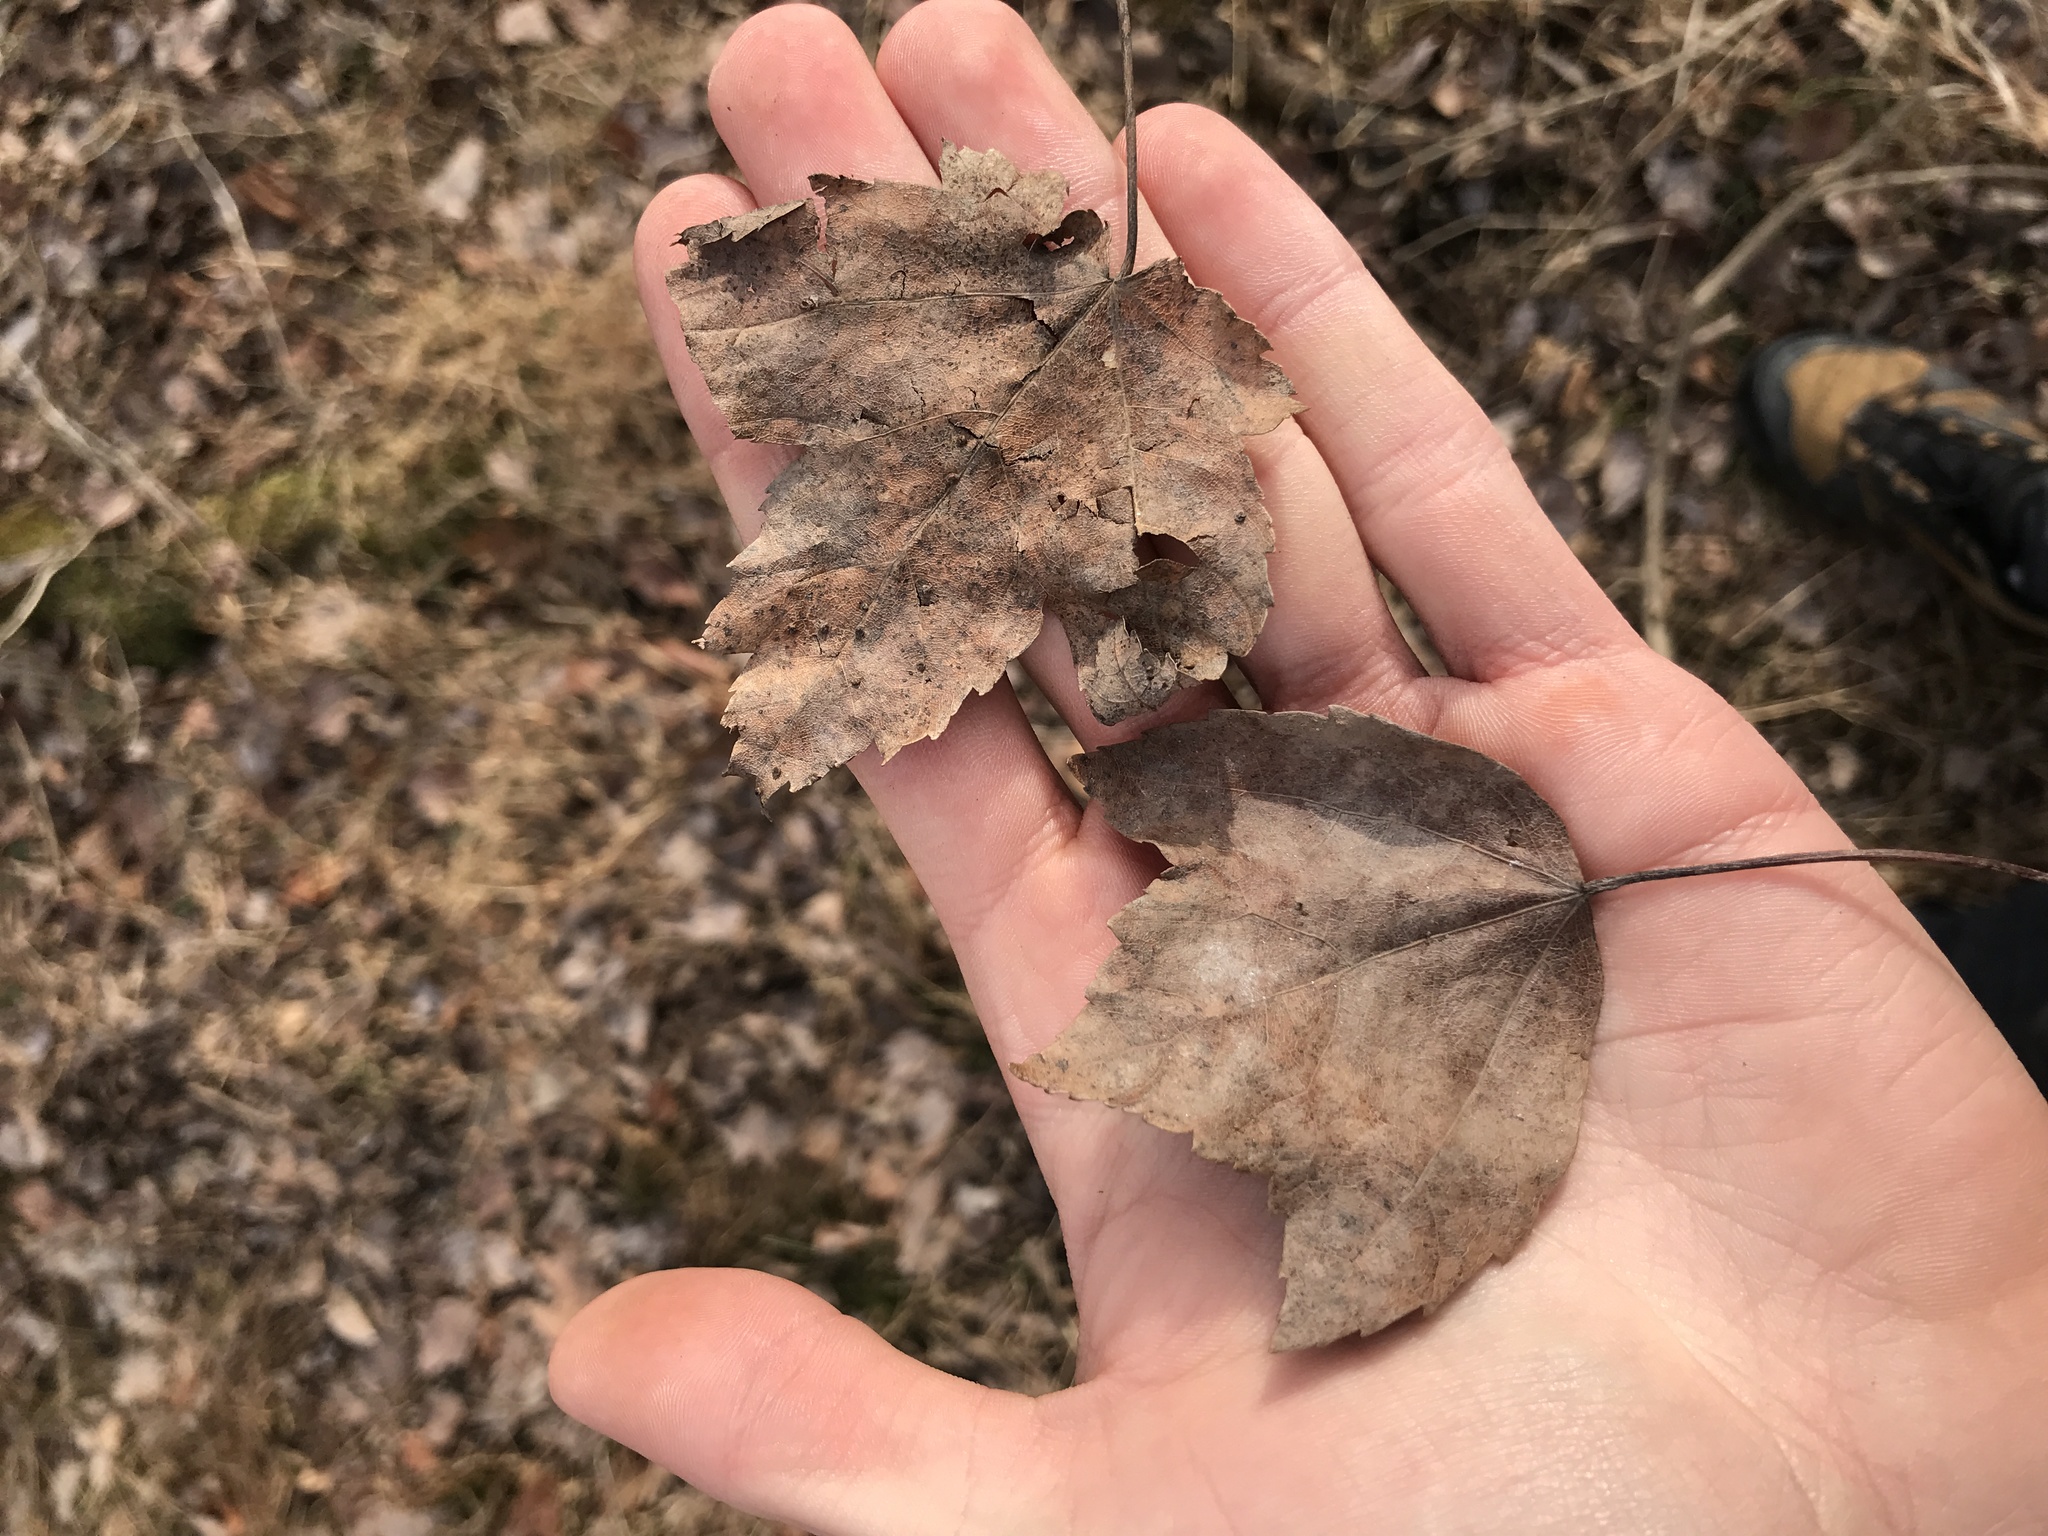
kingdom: Plantae
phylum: Tracheophyta
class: Magnoliopsida
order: Sapindales
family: Sapindaceae
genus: Acer
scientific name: Acer rubrum
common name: Red maple
